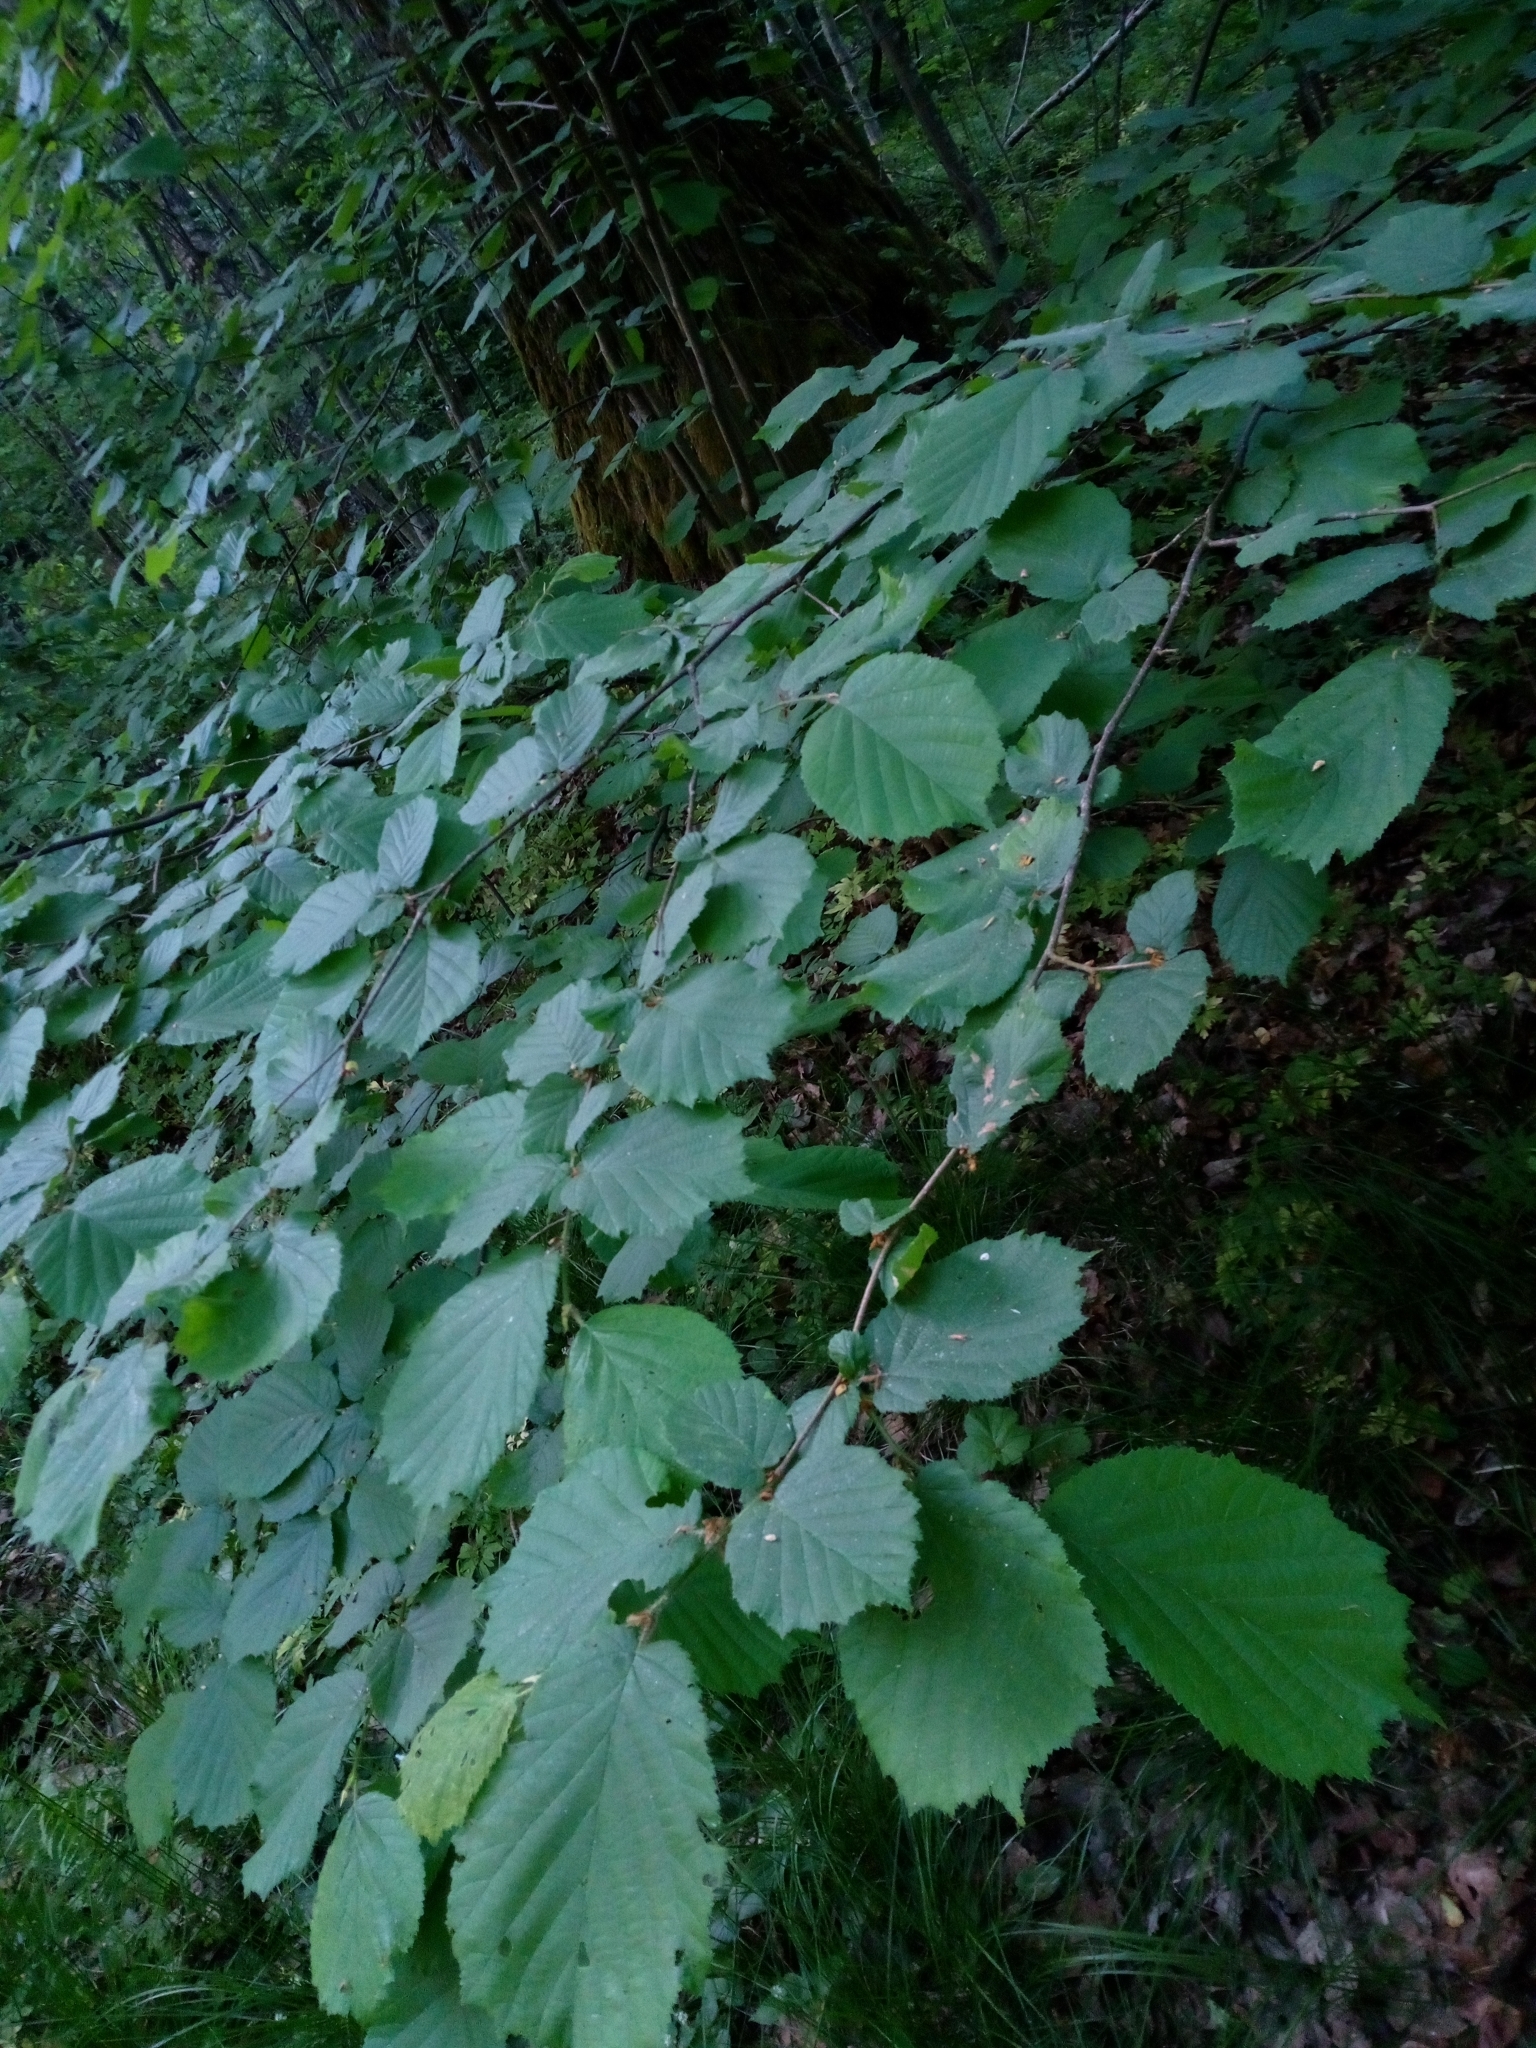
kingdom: Plantae
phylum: Tracheophyta
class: Magnoliopsida
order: Fagales
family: Betulaceae
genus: Corylus
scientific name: Corylus avellana
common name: European hazel
